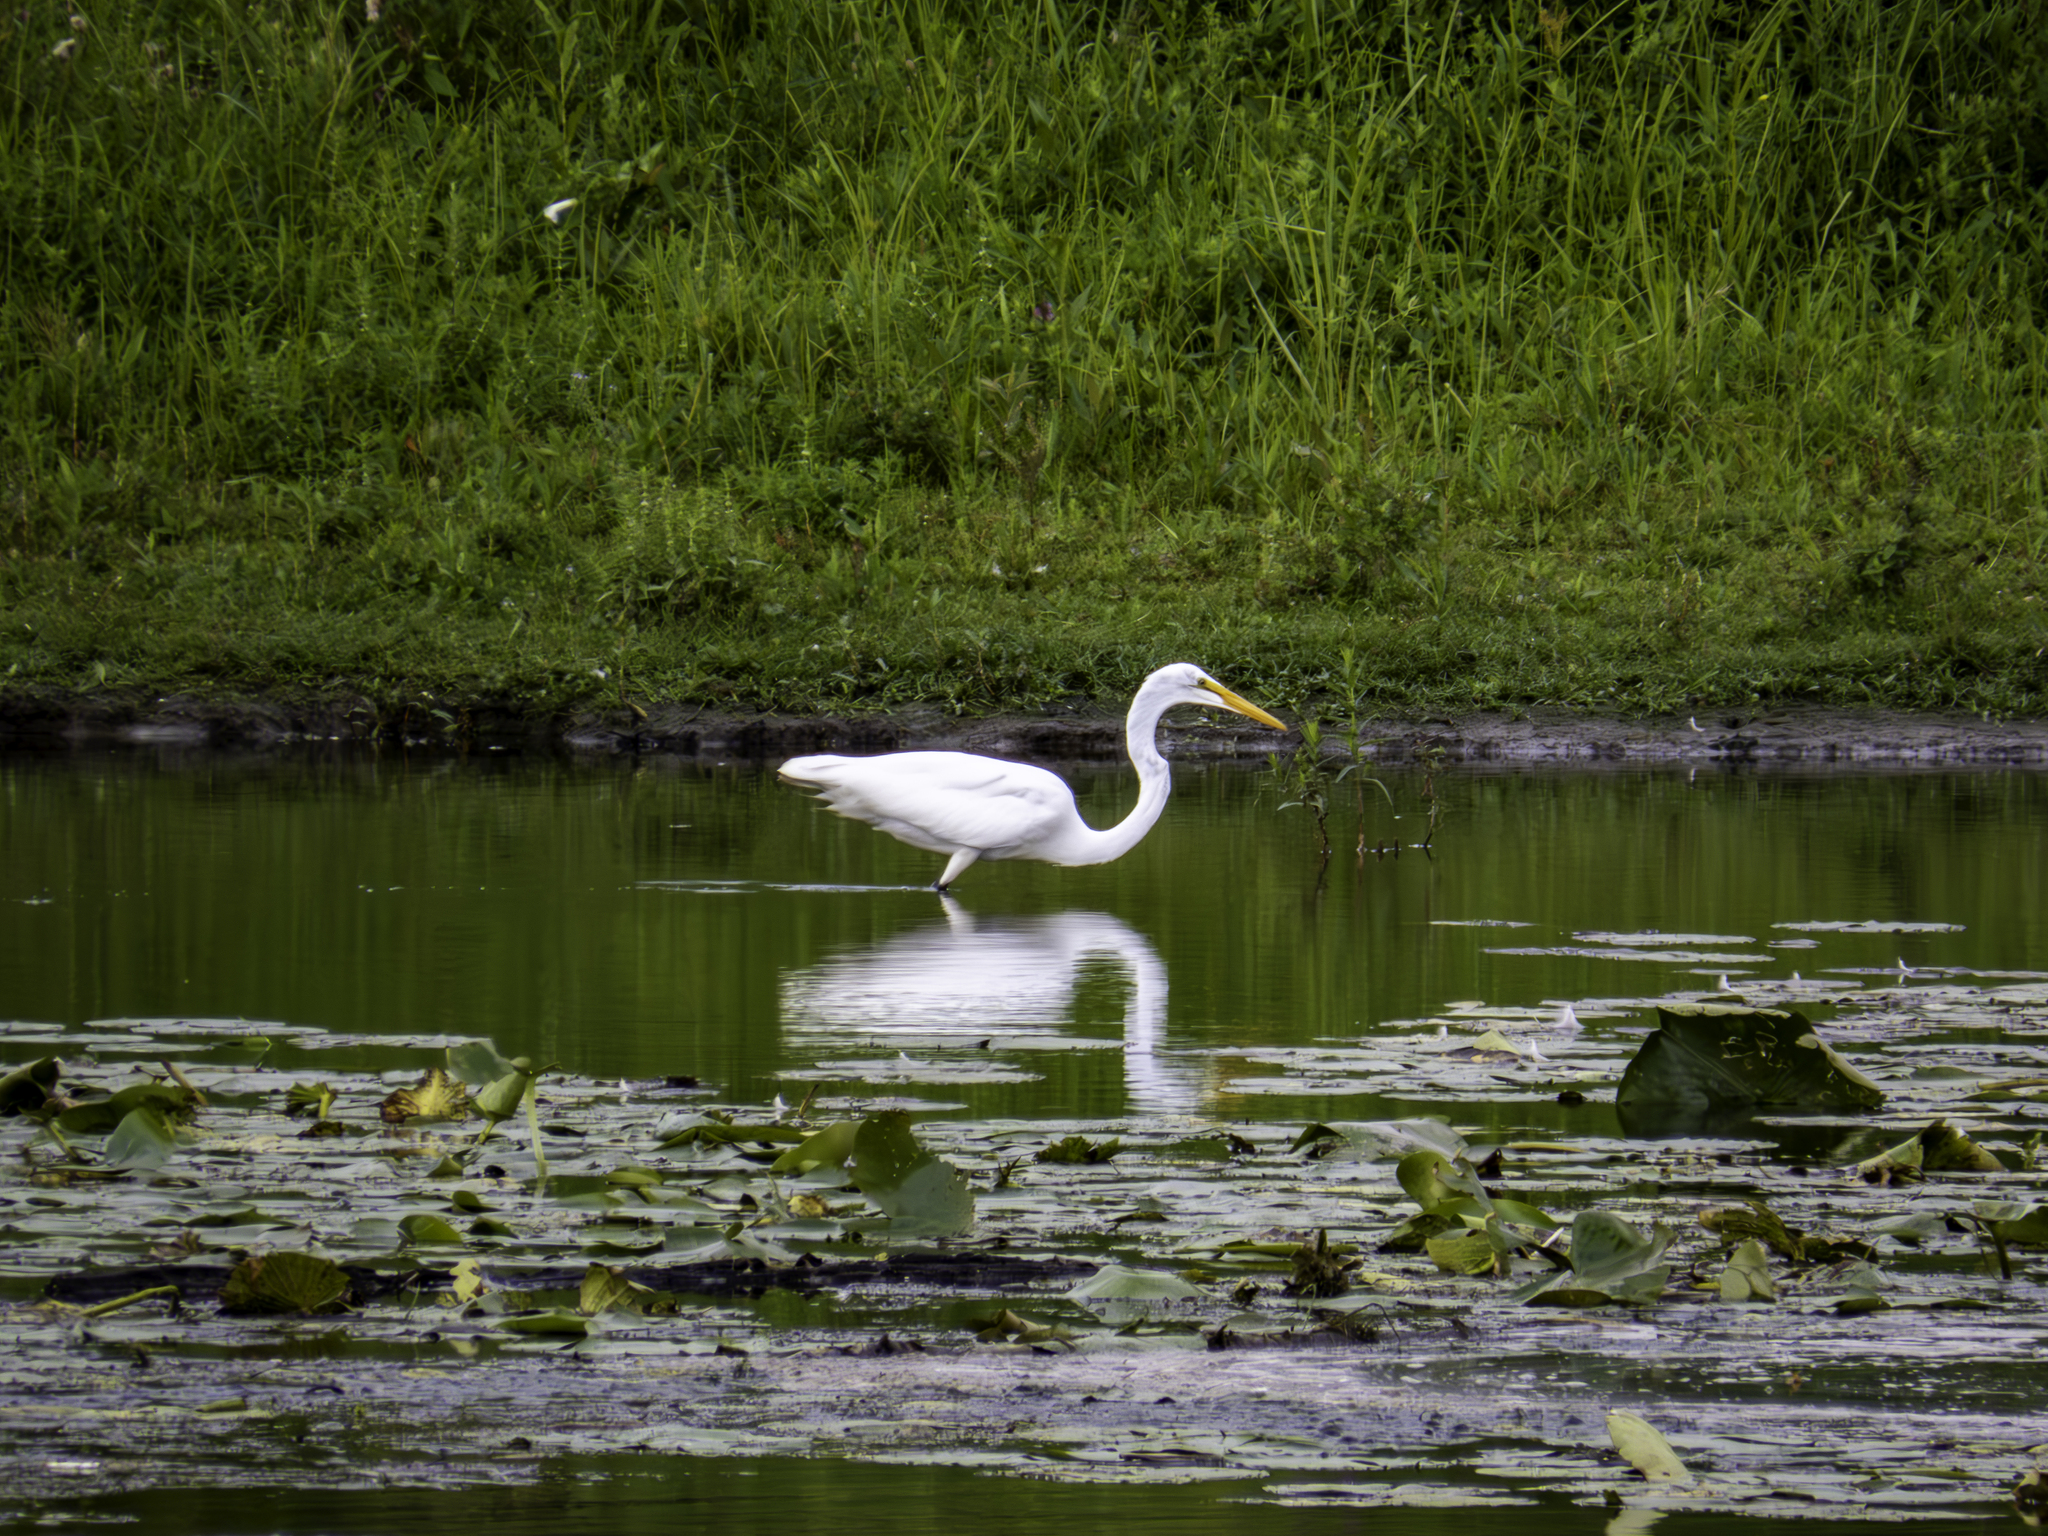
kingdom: Animalia
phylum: Chordata
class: Aves
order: Pelecaniformes
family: Ardeidae
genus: Ardea
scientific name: Ardea alba
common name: Great egret
